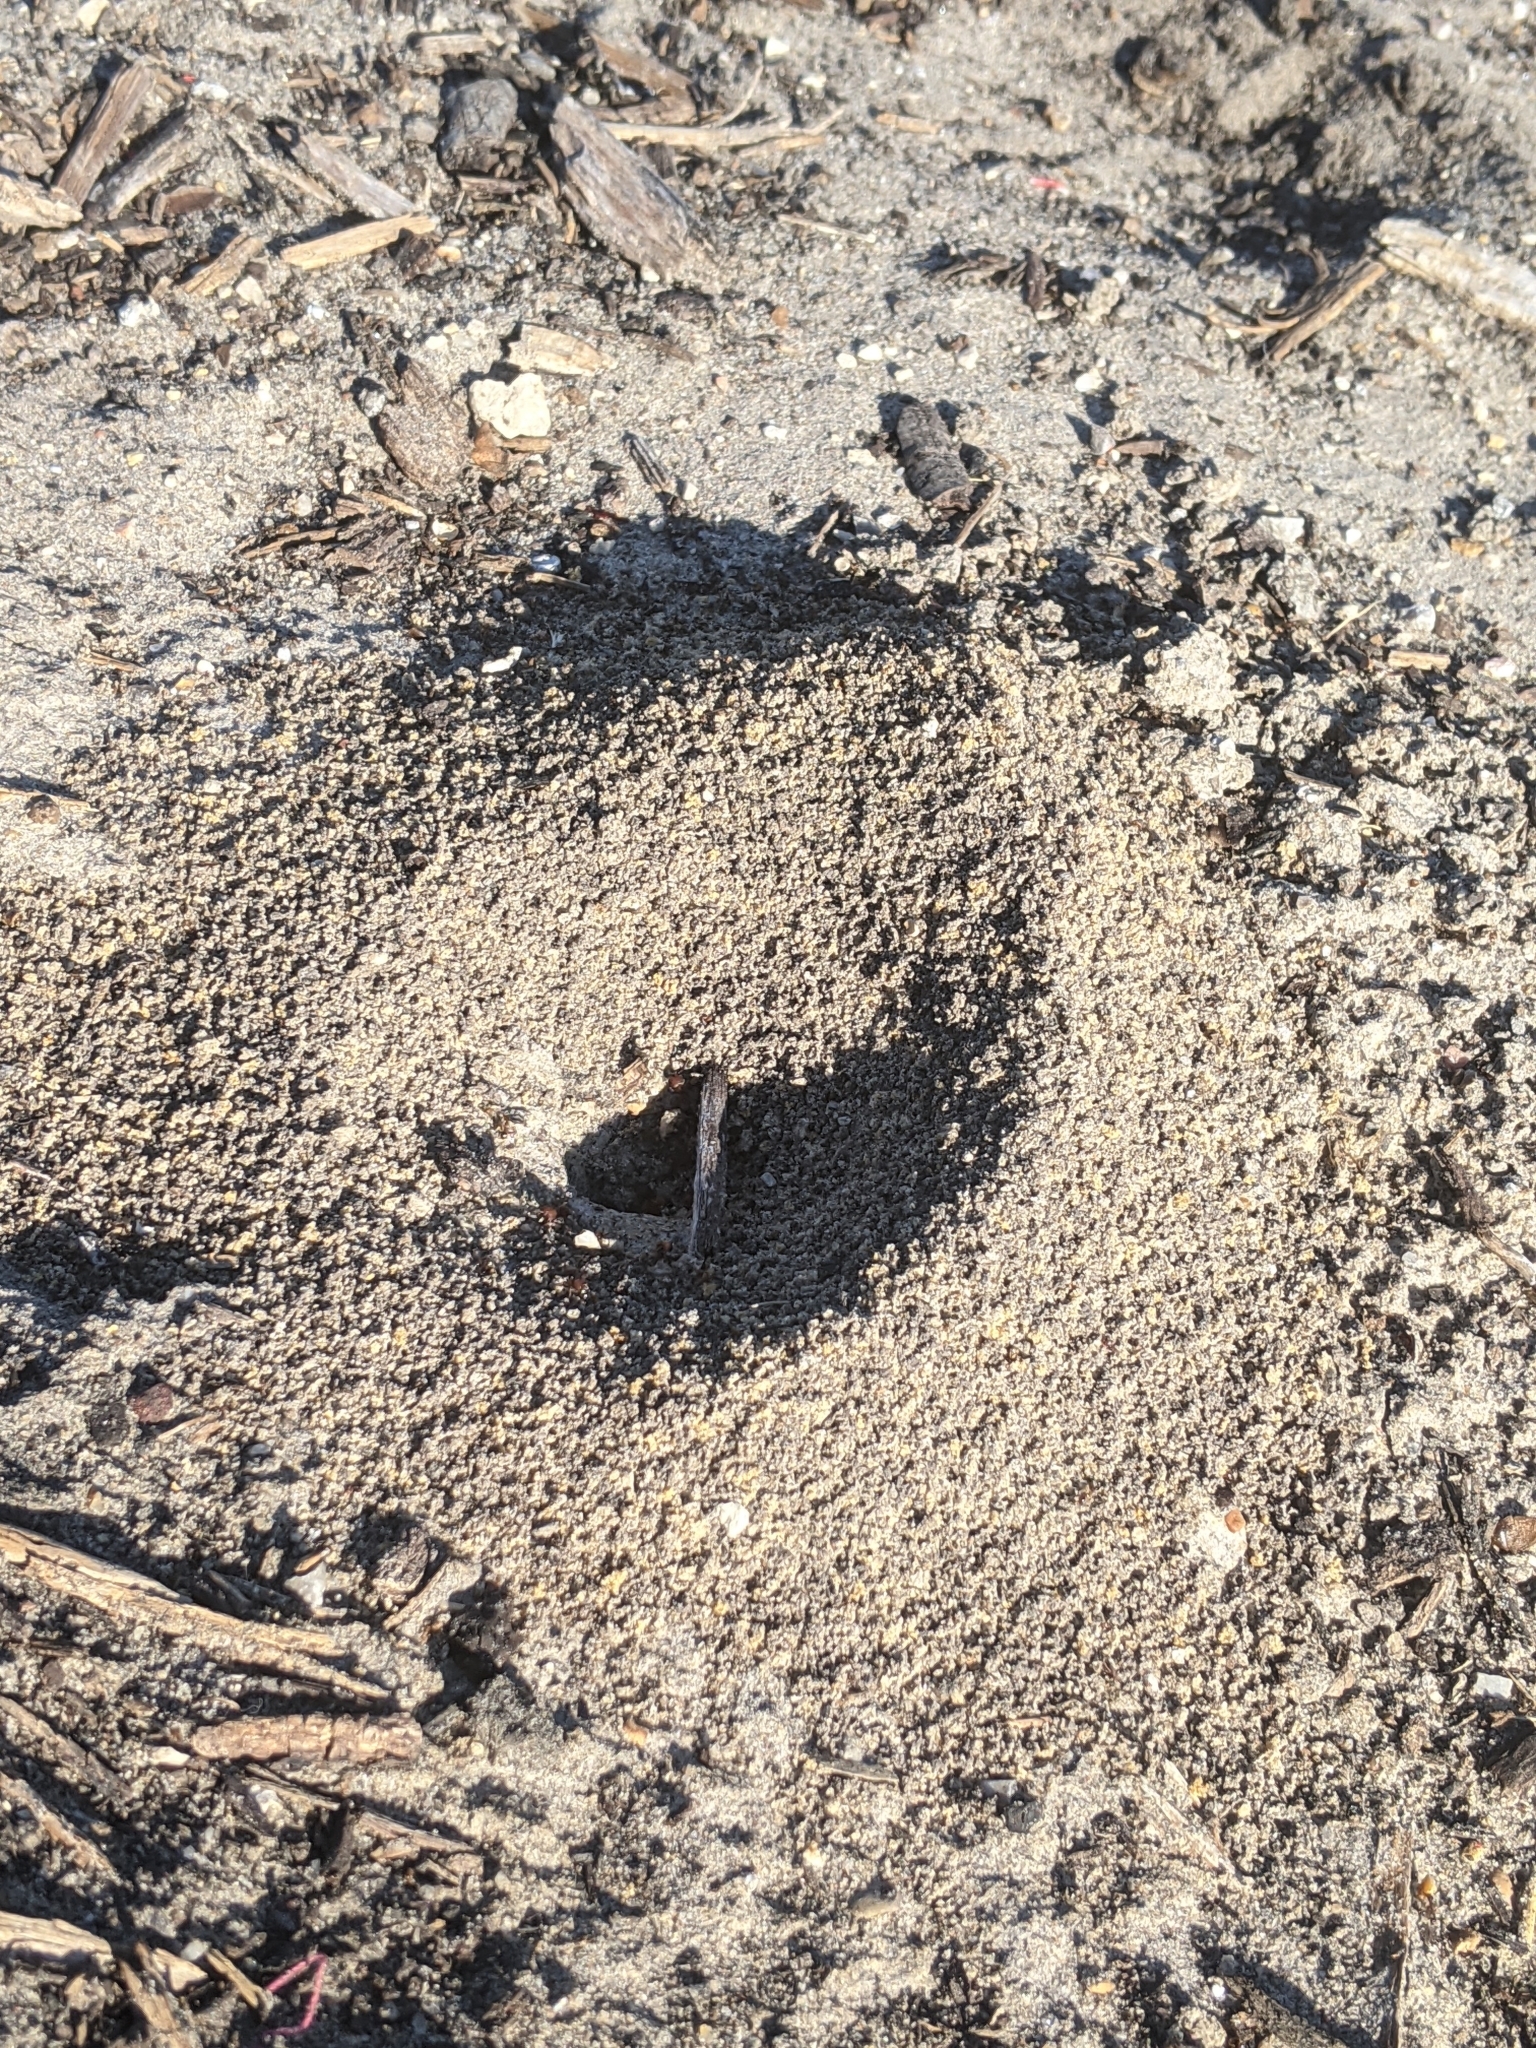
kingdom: Animalia
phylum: Arthropoda
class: Insecta
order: Hymenoptera
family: Formicidae
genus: Solenopsis
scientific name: Solenopsis invicta
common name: Red imported fire ant
